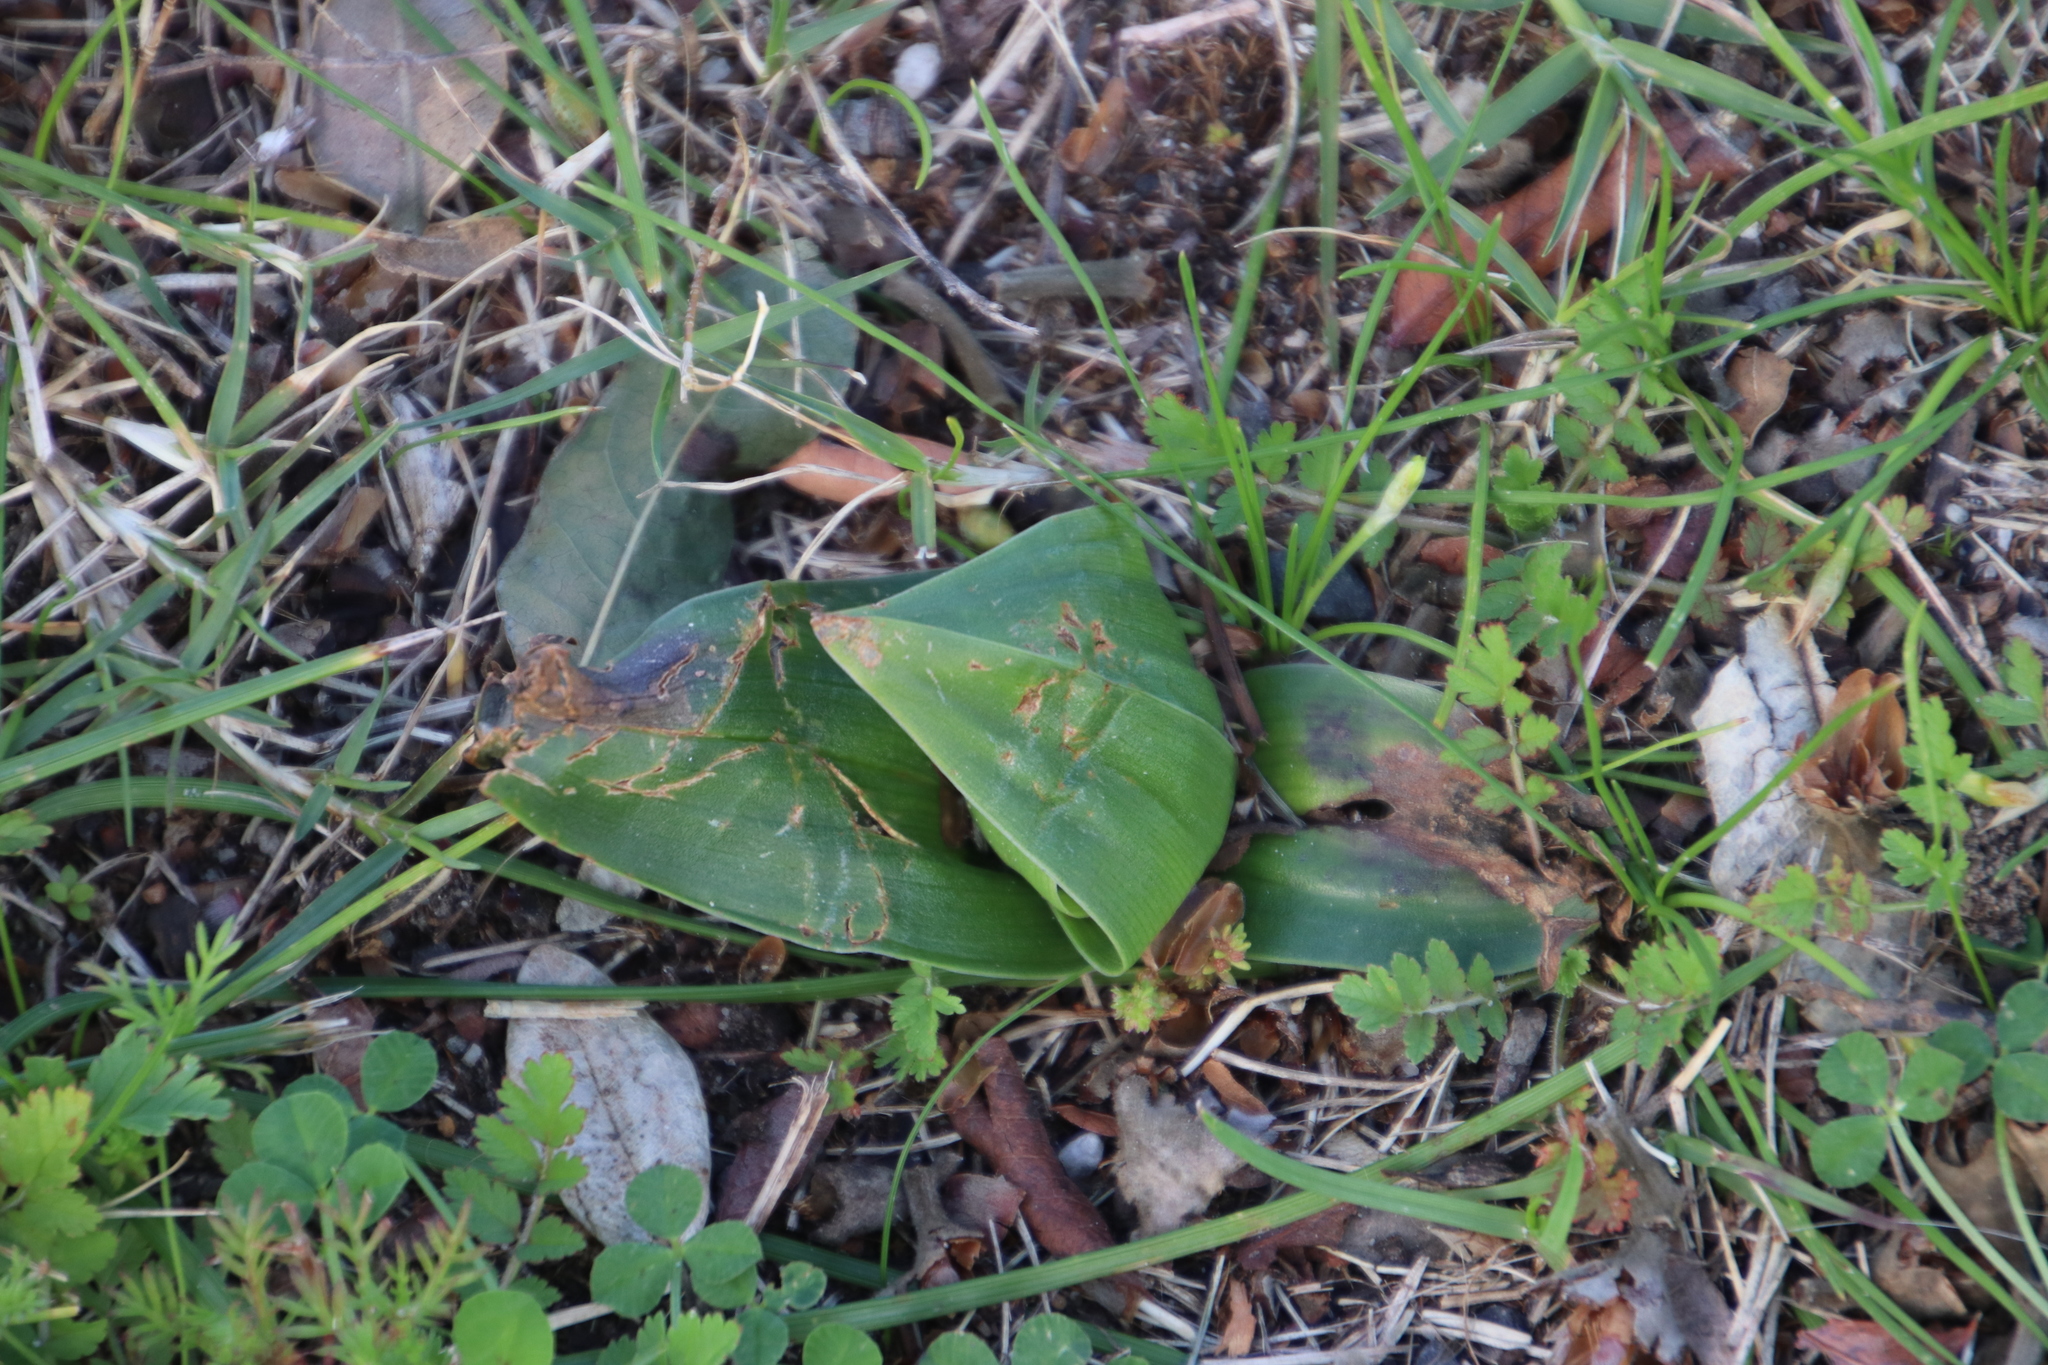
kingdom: Plantae
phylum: Tracheophyta
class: Liliopsida
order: Liliales
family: Colchicaceae
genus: Colchicum
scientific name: Colchicum eucomoides
